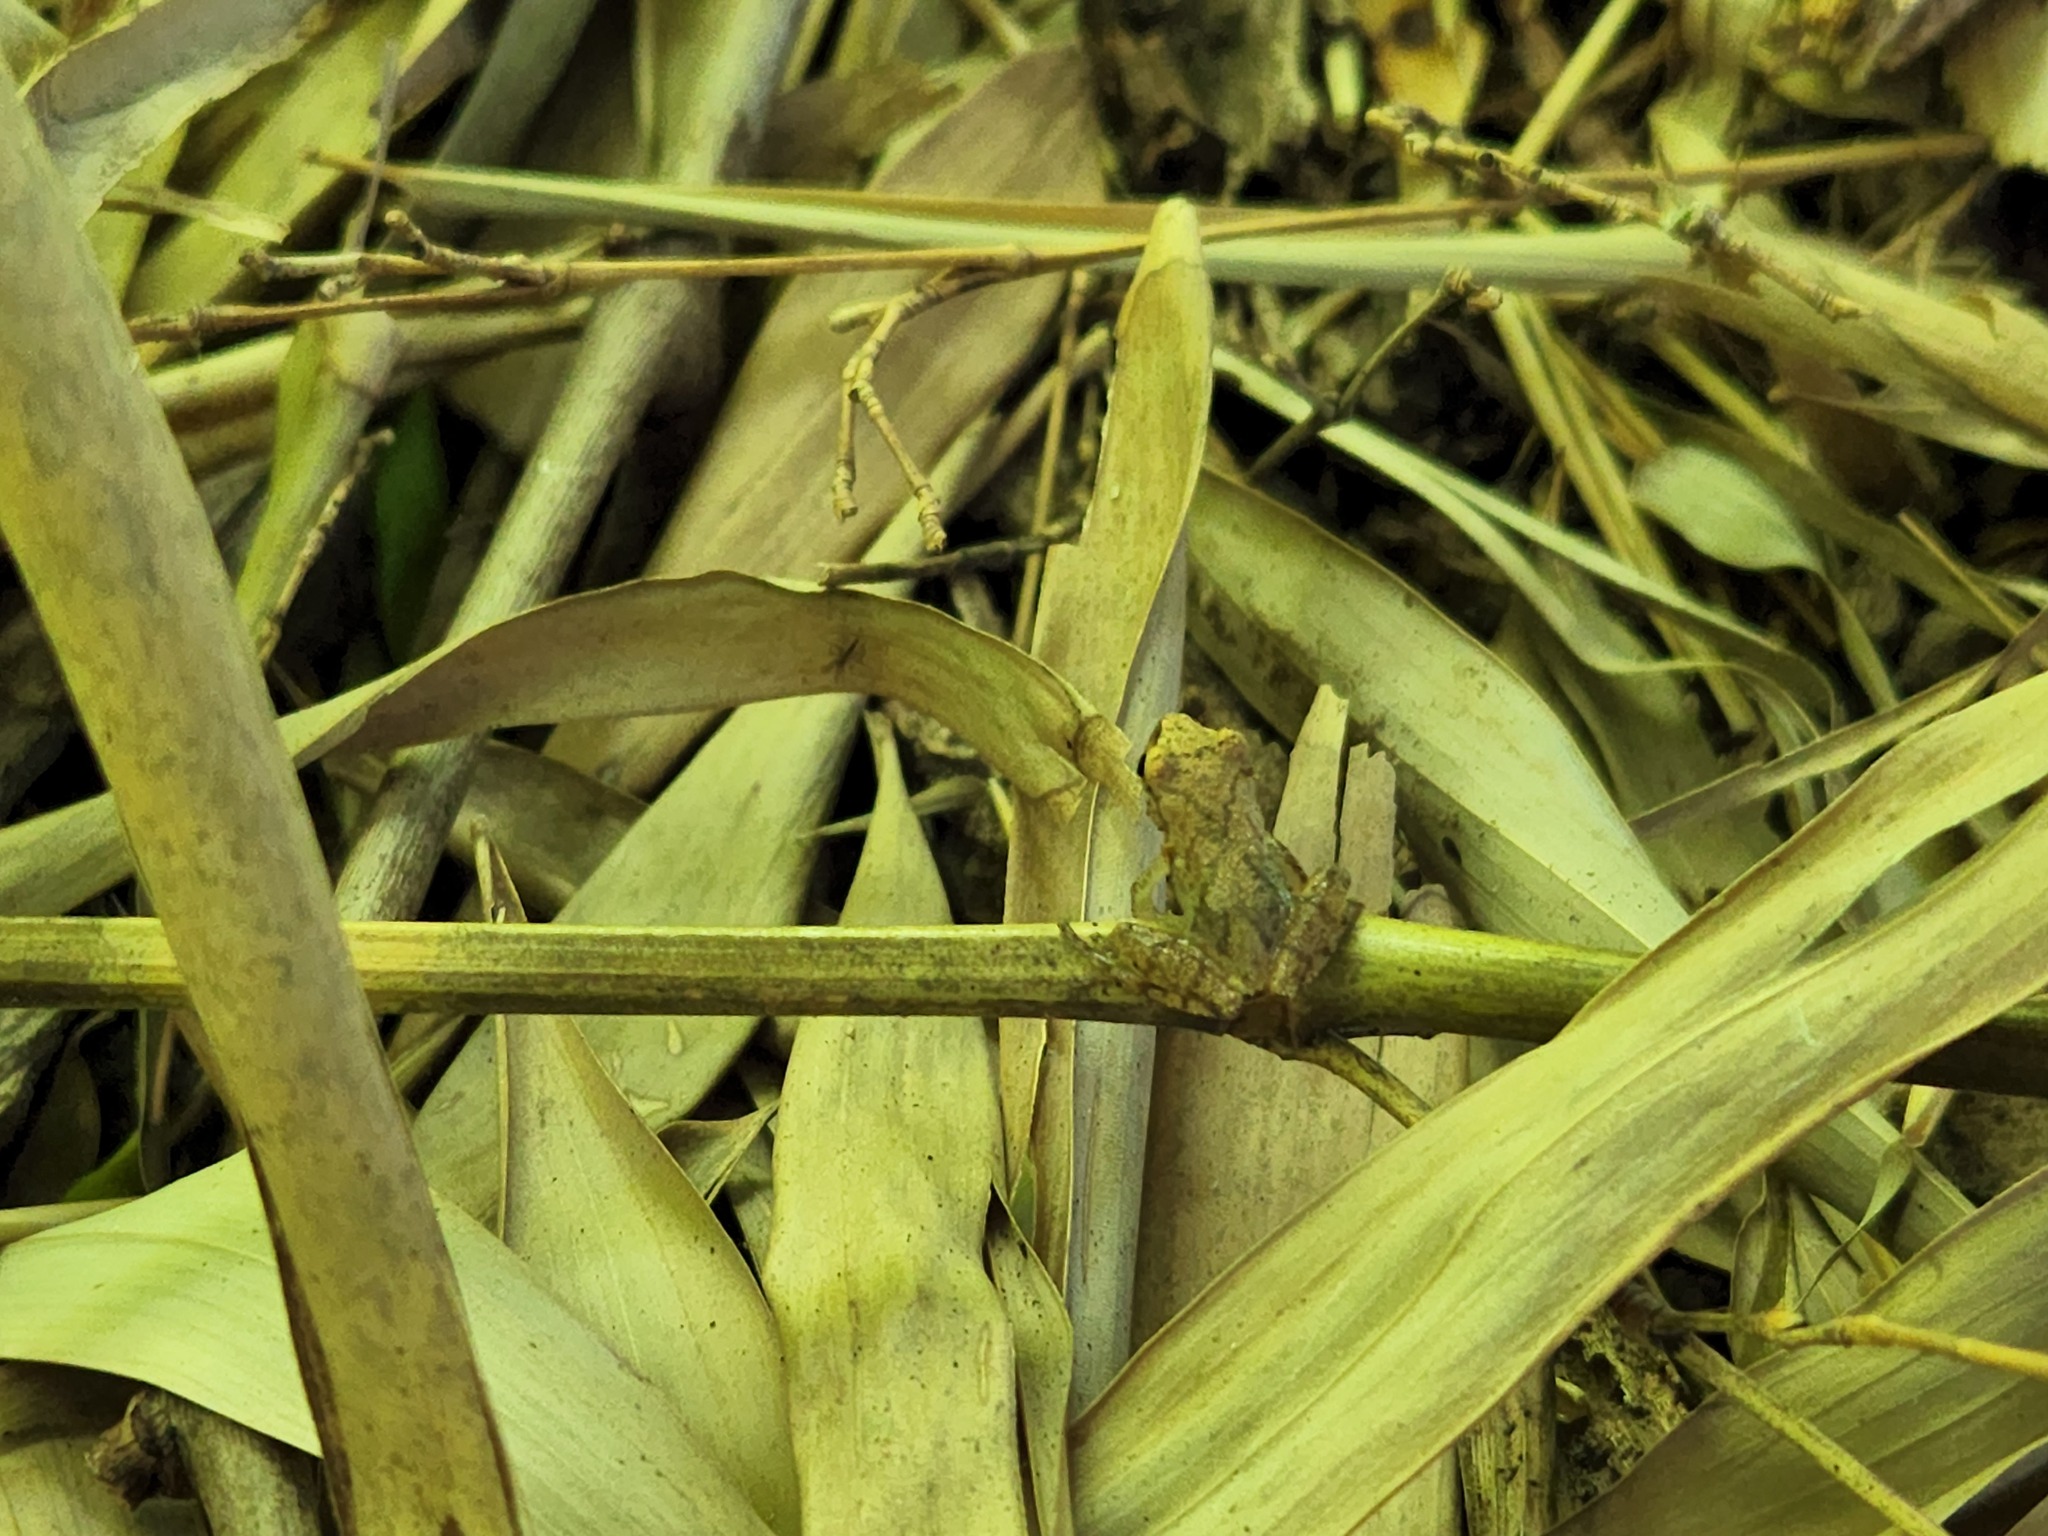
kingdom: Animalia
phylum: Chordata
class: Amphibia
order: Anura
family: Hylidae
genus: Pseudacris
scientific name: Pseudacris crucifer
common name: Spring peeper
